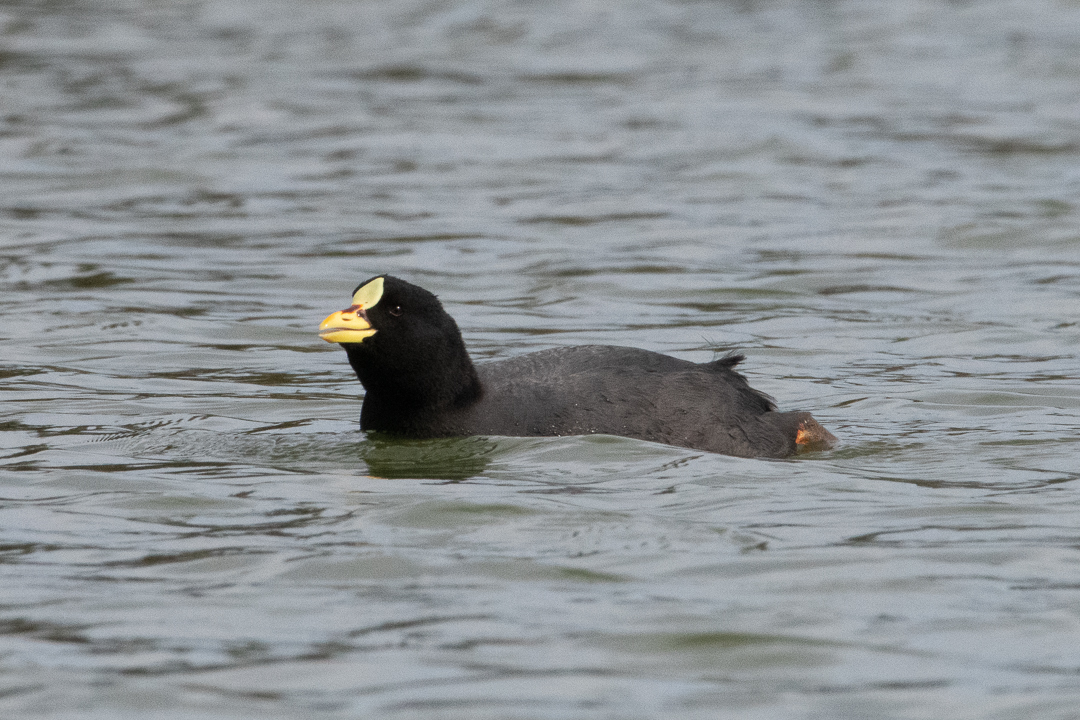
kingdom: Animalia
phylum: Chordata
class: Aves
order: Gruiformes
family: Rallidae
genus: Fulica
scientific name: Fulica armillata
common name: Red-gartered coot
